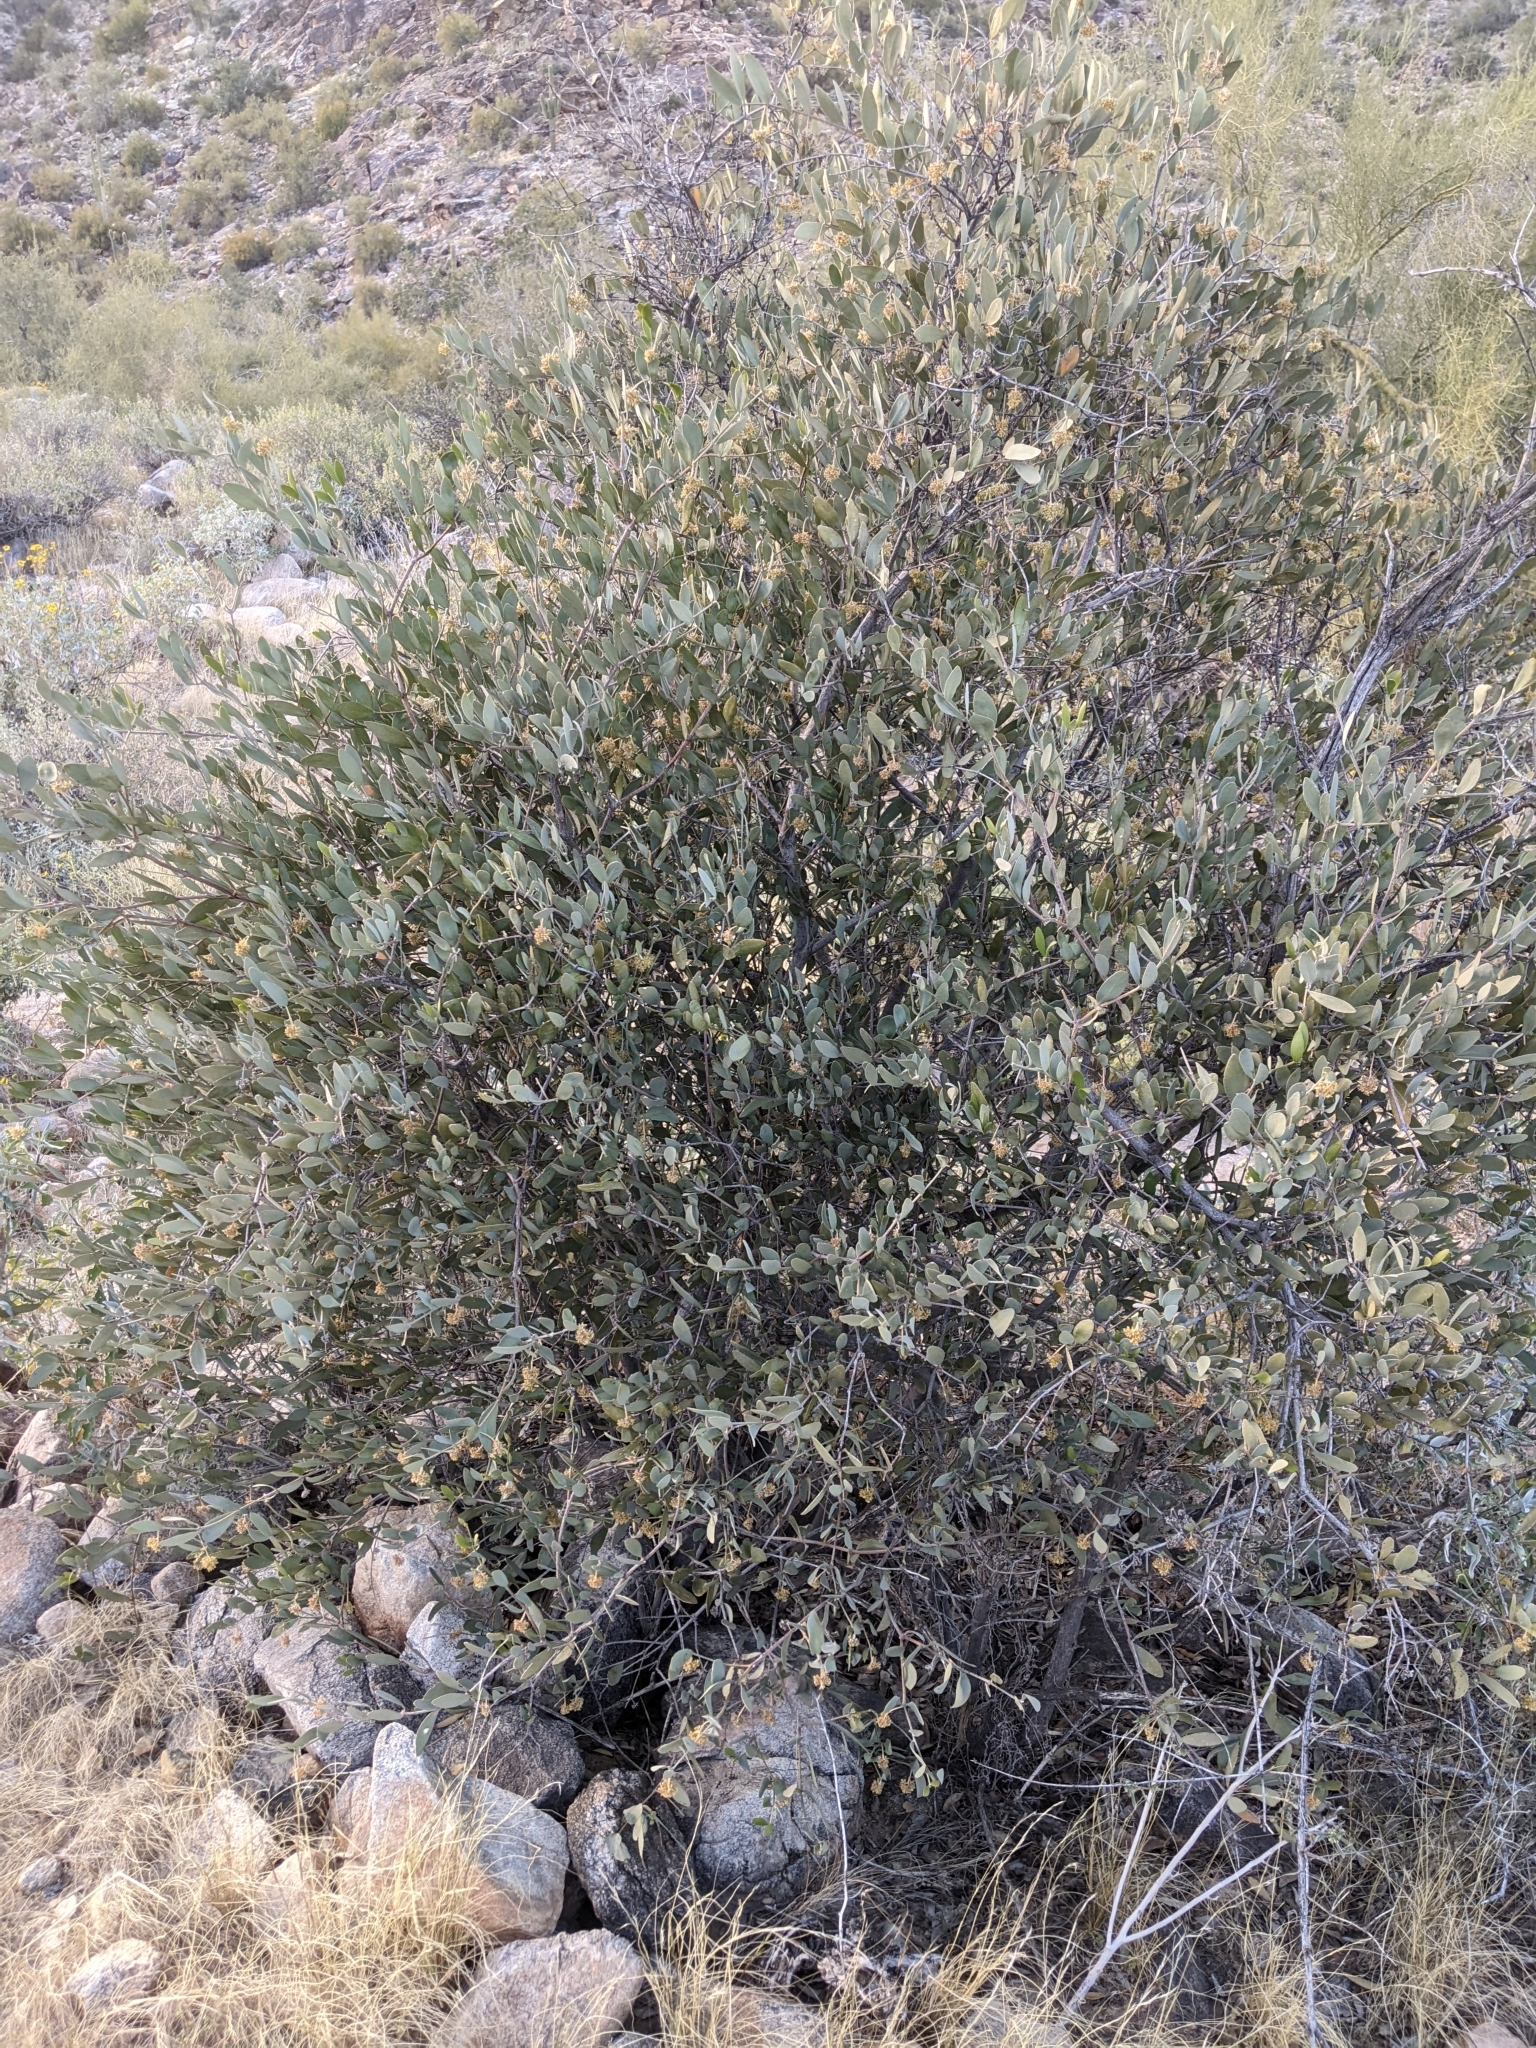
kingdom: Plantae
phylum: Tracheophyta
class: Magnoliopsida
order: Caryophyllales
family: Simmondsiaceae
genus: Simmondsia
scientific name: Simmondsia chinensis
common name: Jojoba
